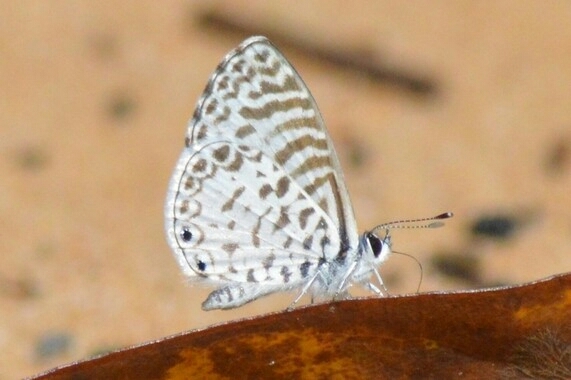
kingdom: Animalia
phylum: Arthropoda
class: Insecta
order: Lepidoptera
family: Lycaenidae
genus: Leptotes
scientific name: Leptotes cassius
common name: Cassius blue
